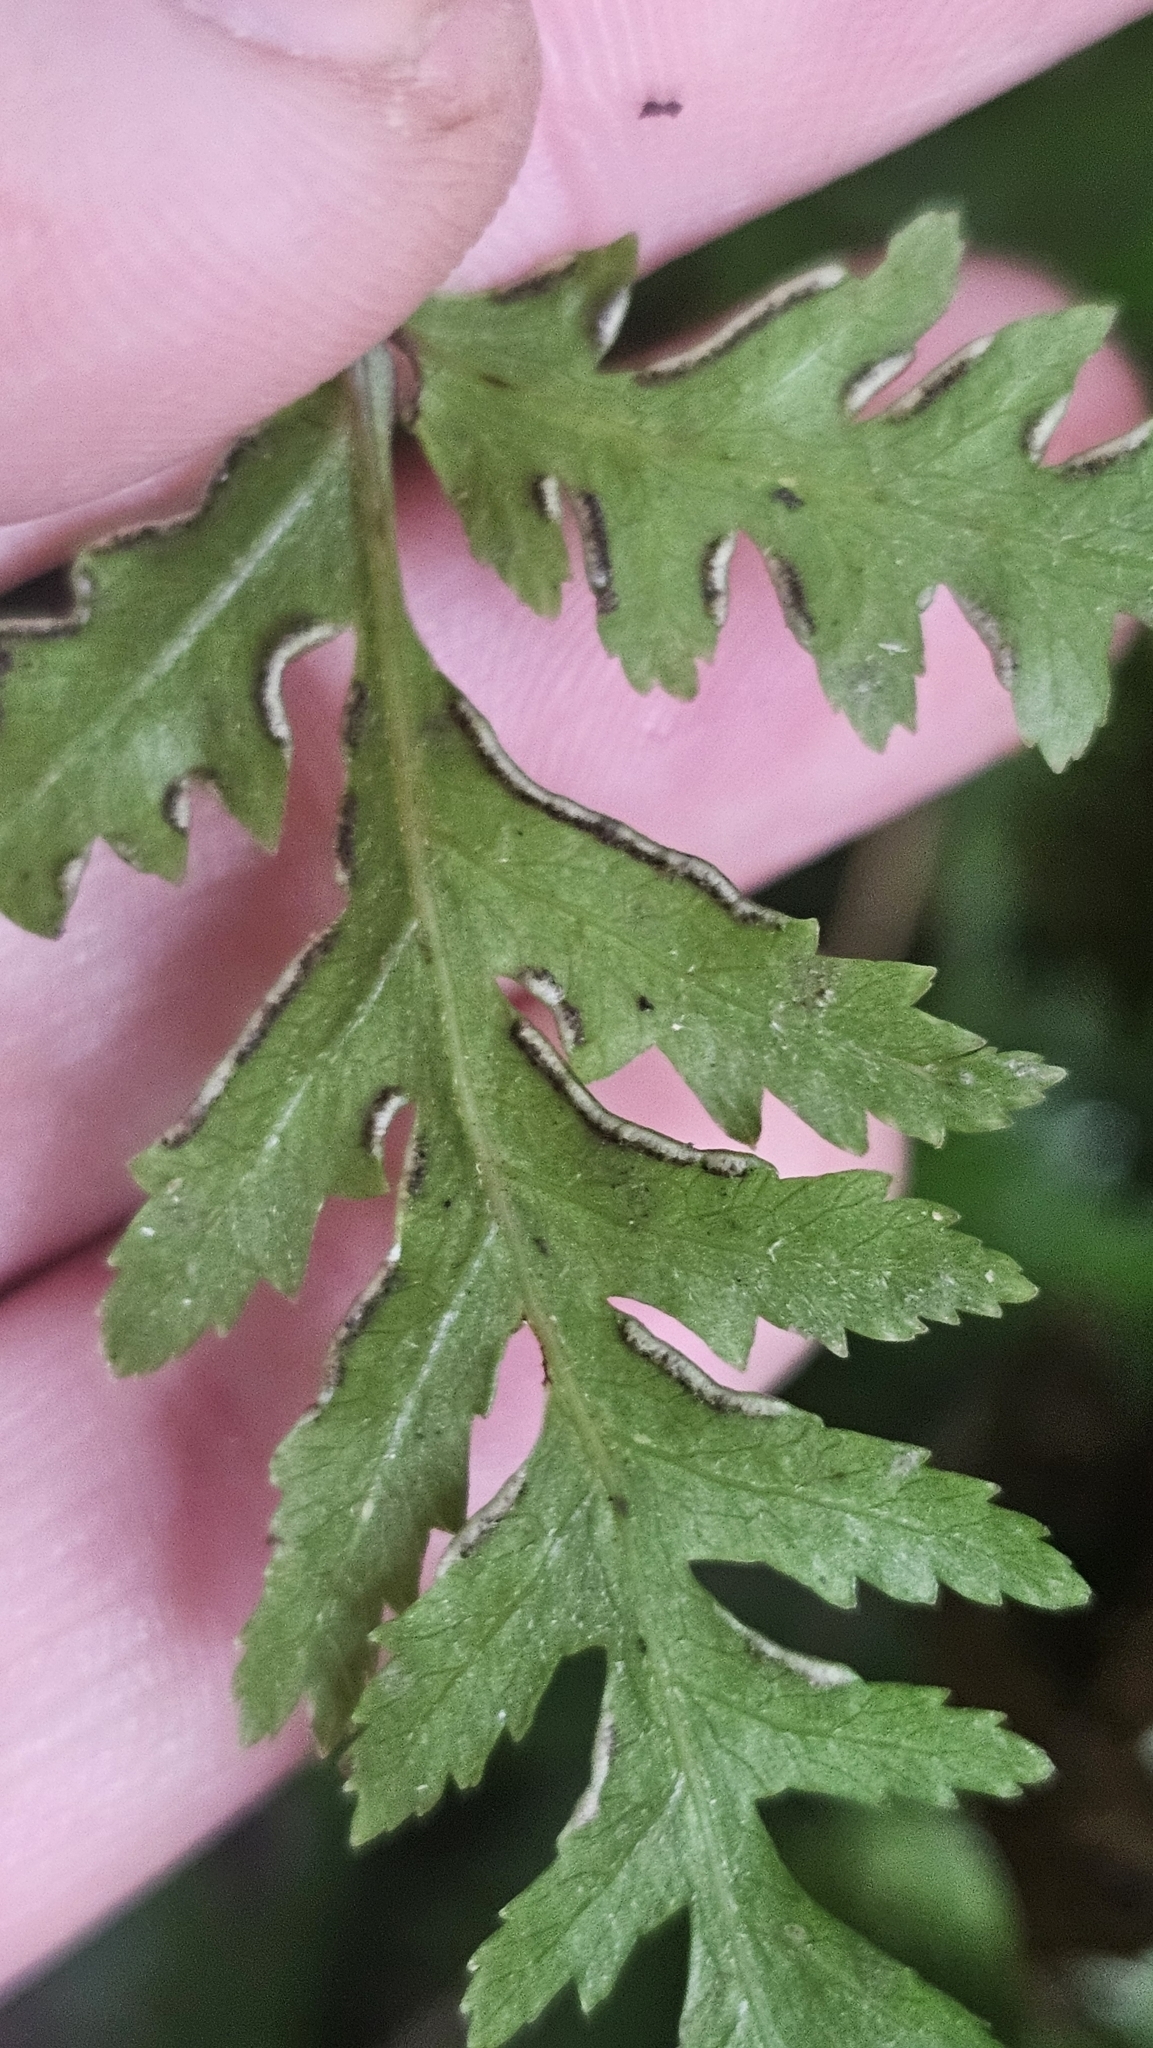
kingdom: Plantae
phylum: Tracheophyta
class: Polypodiopsida
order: Polypodiales
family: Pteridaceae
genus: Pteris
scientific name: Pteris macilenta
